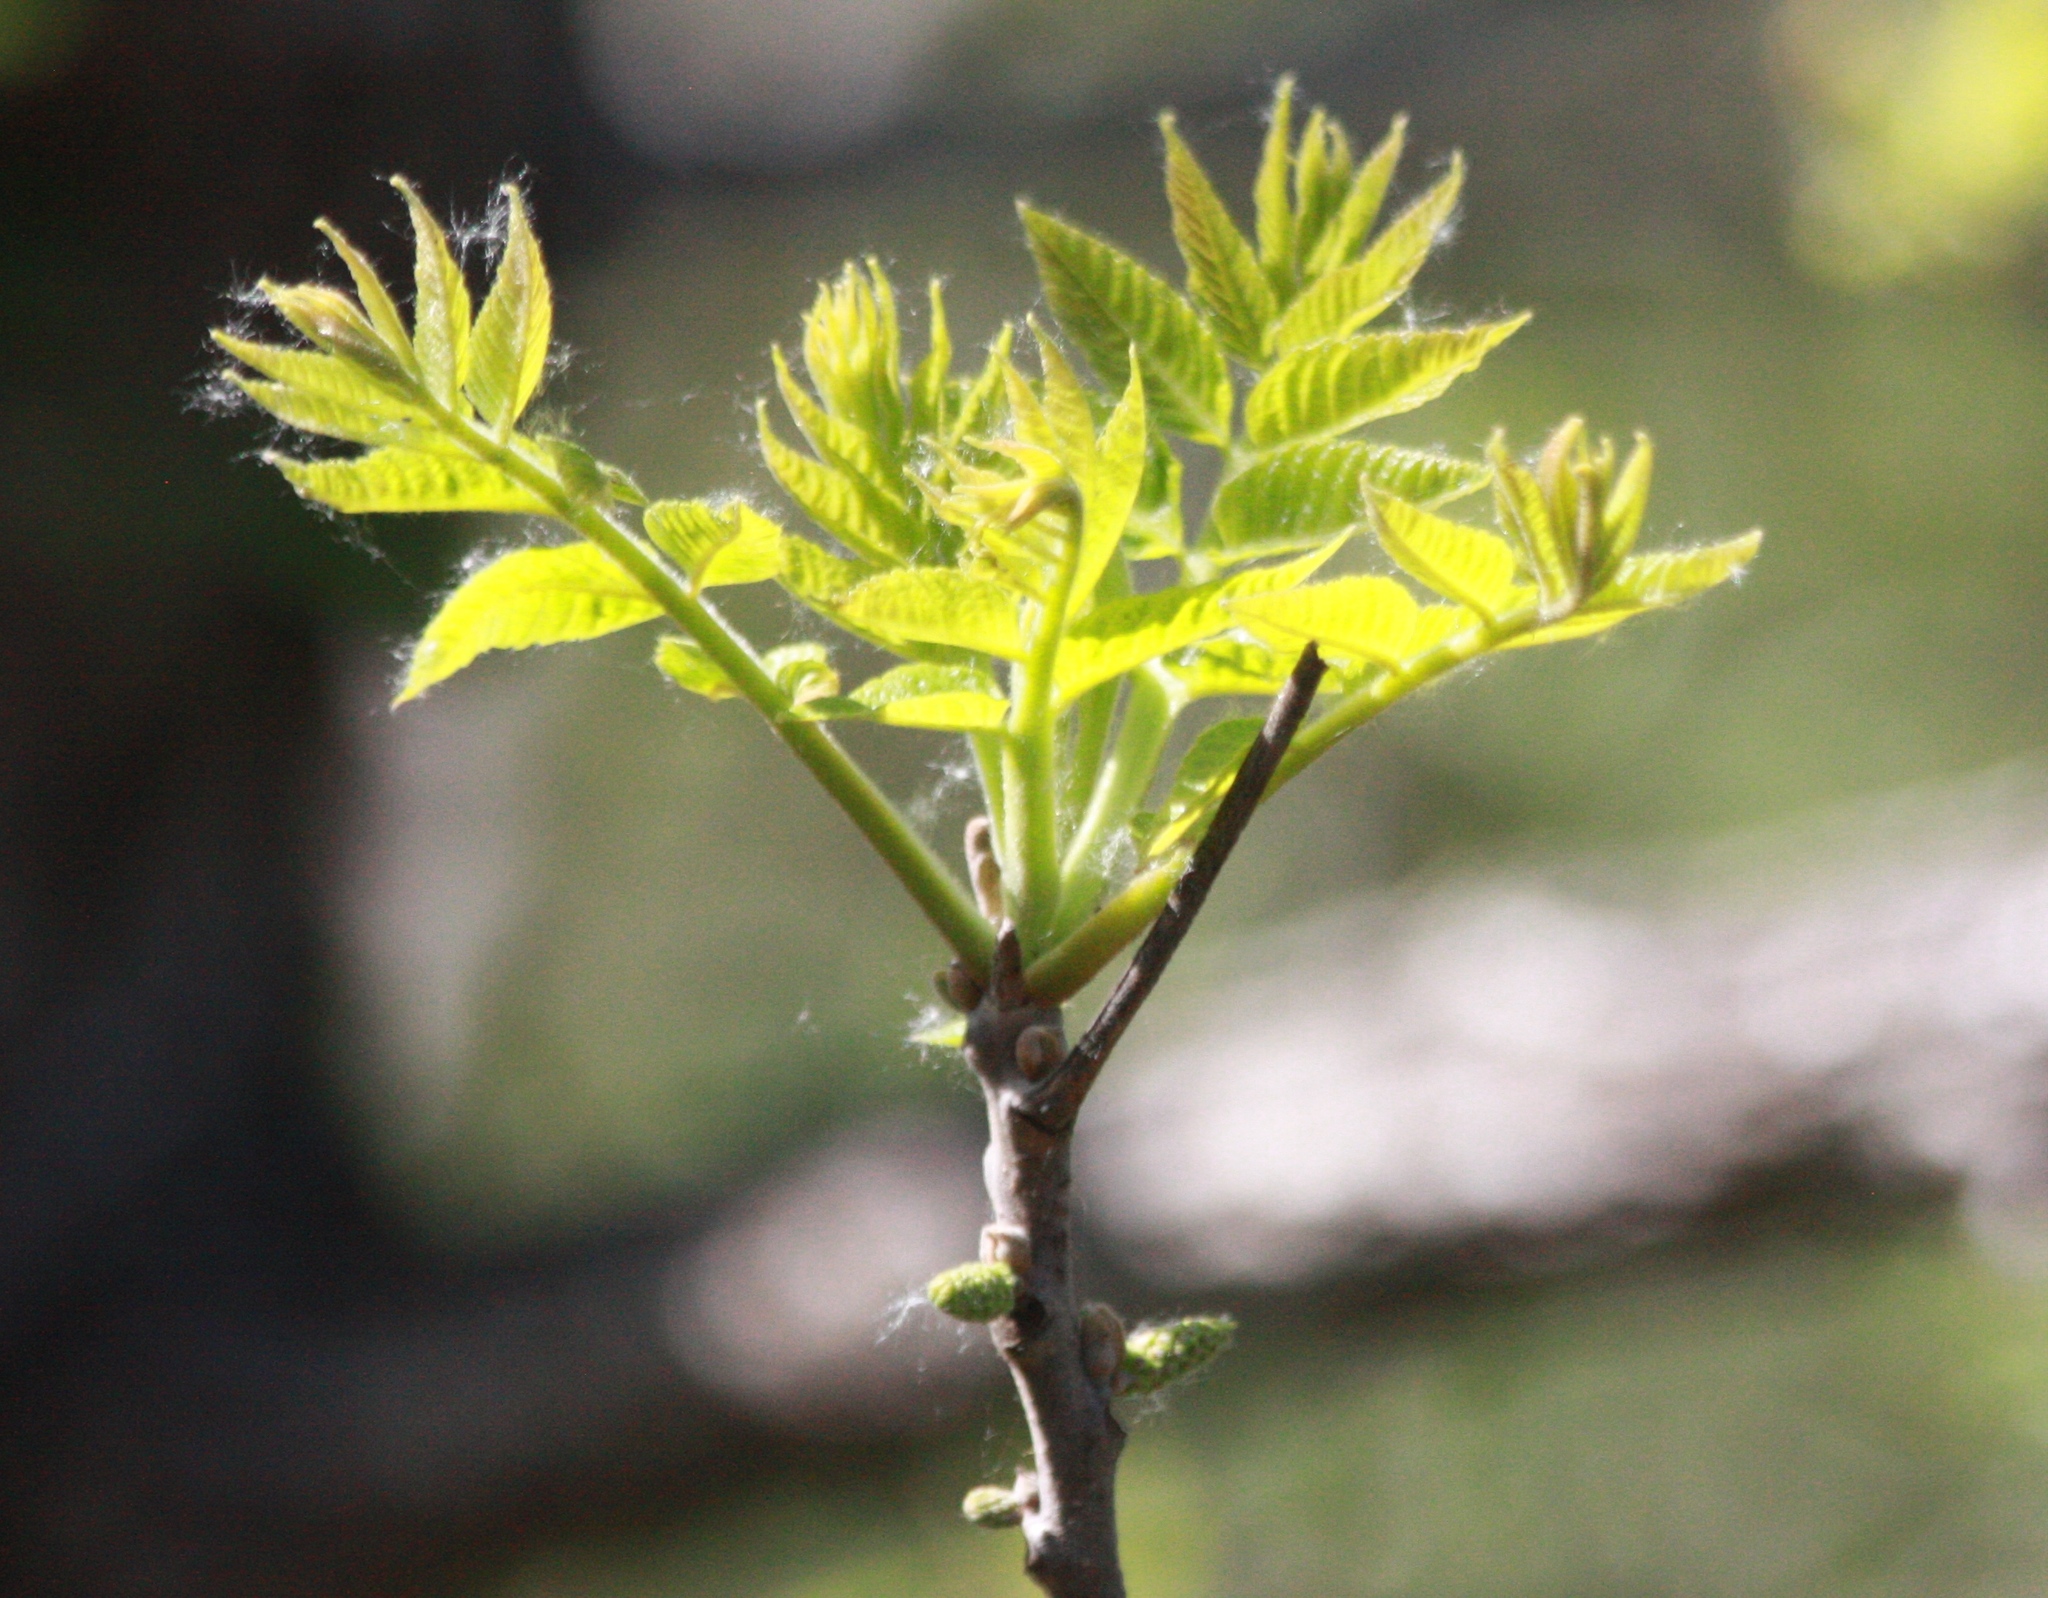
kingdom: Plantae
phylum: Tracheophyta
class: Magnoliopsida
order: Fagales
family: Juglandaceae
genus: Juglans
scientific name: Juglans hindsii
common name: Northern california black walnut
